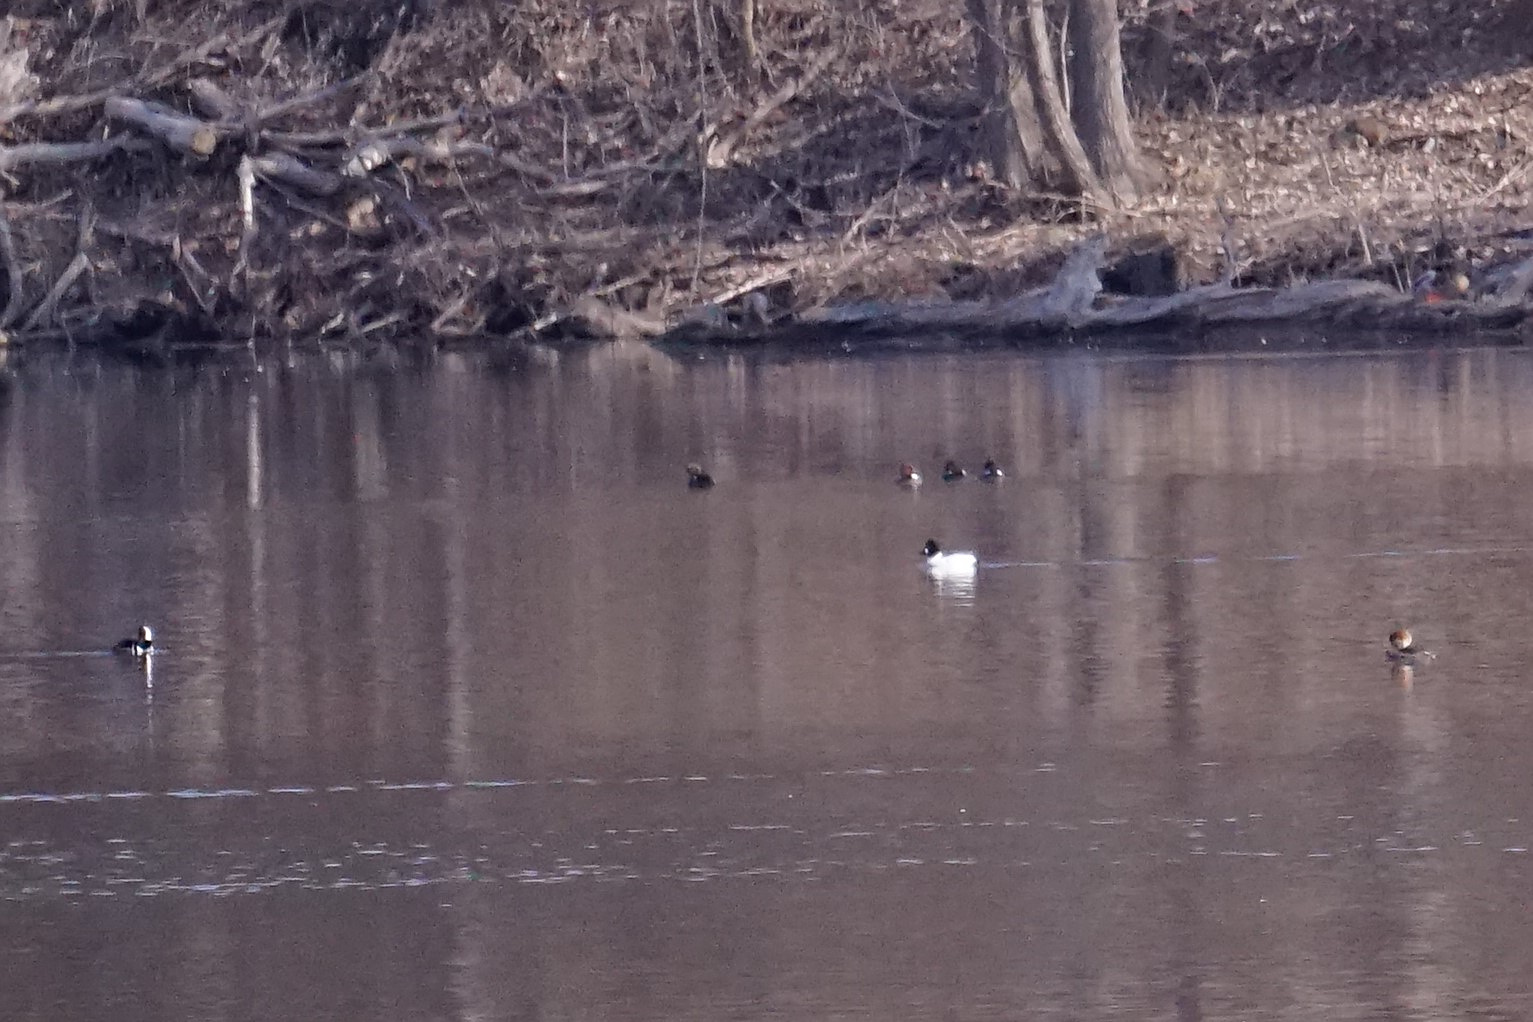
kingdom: Animalia
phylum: Chordata
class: Aves
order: Anseriformes
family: Anatidae
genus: Bucephala
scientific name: Bucephala clangula
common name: Common goldeneye
